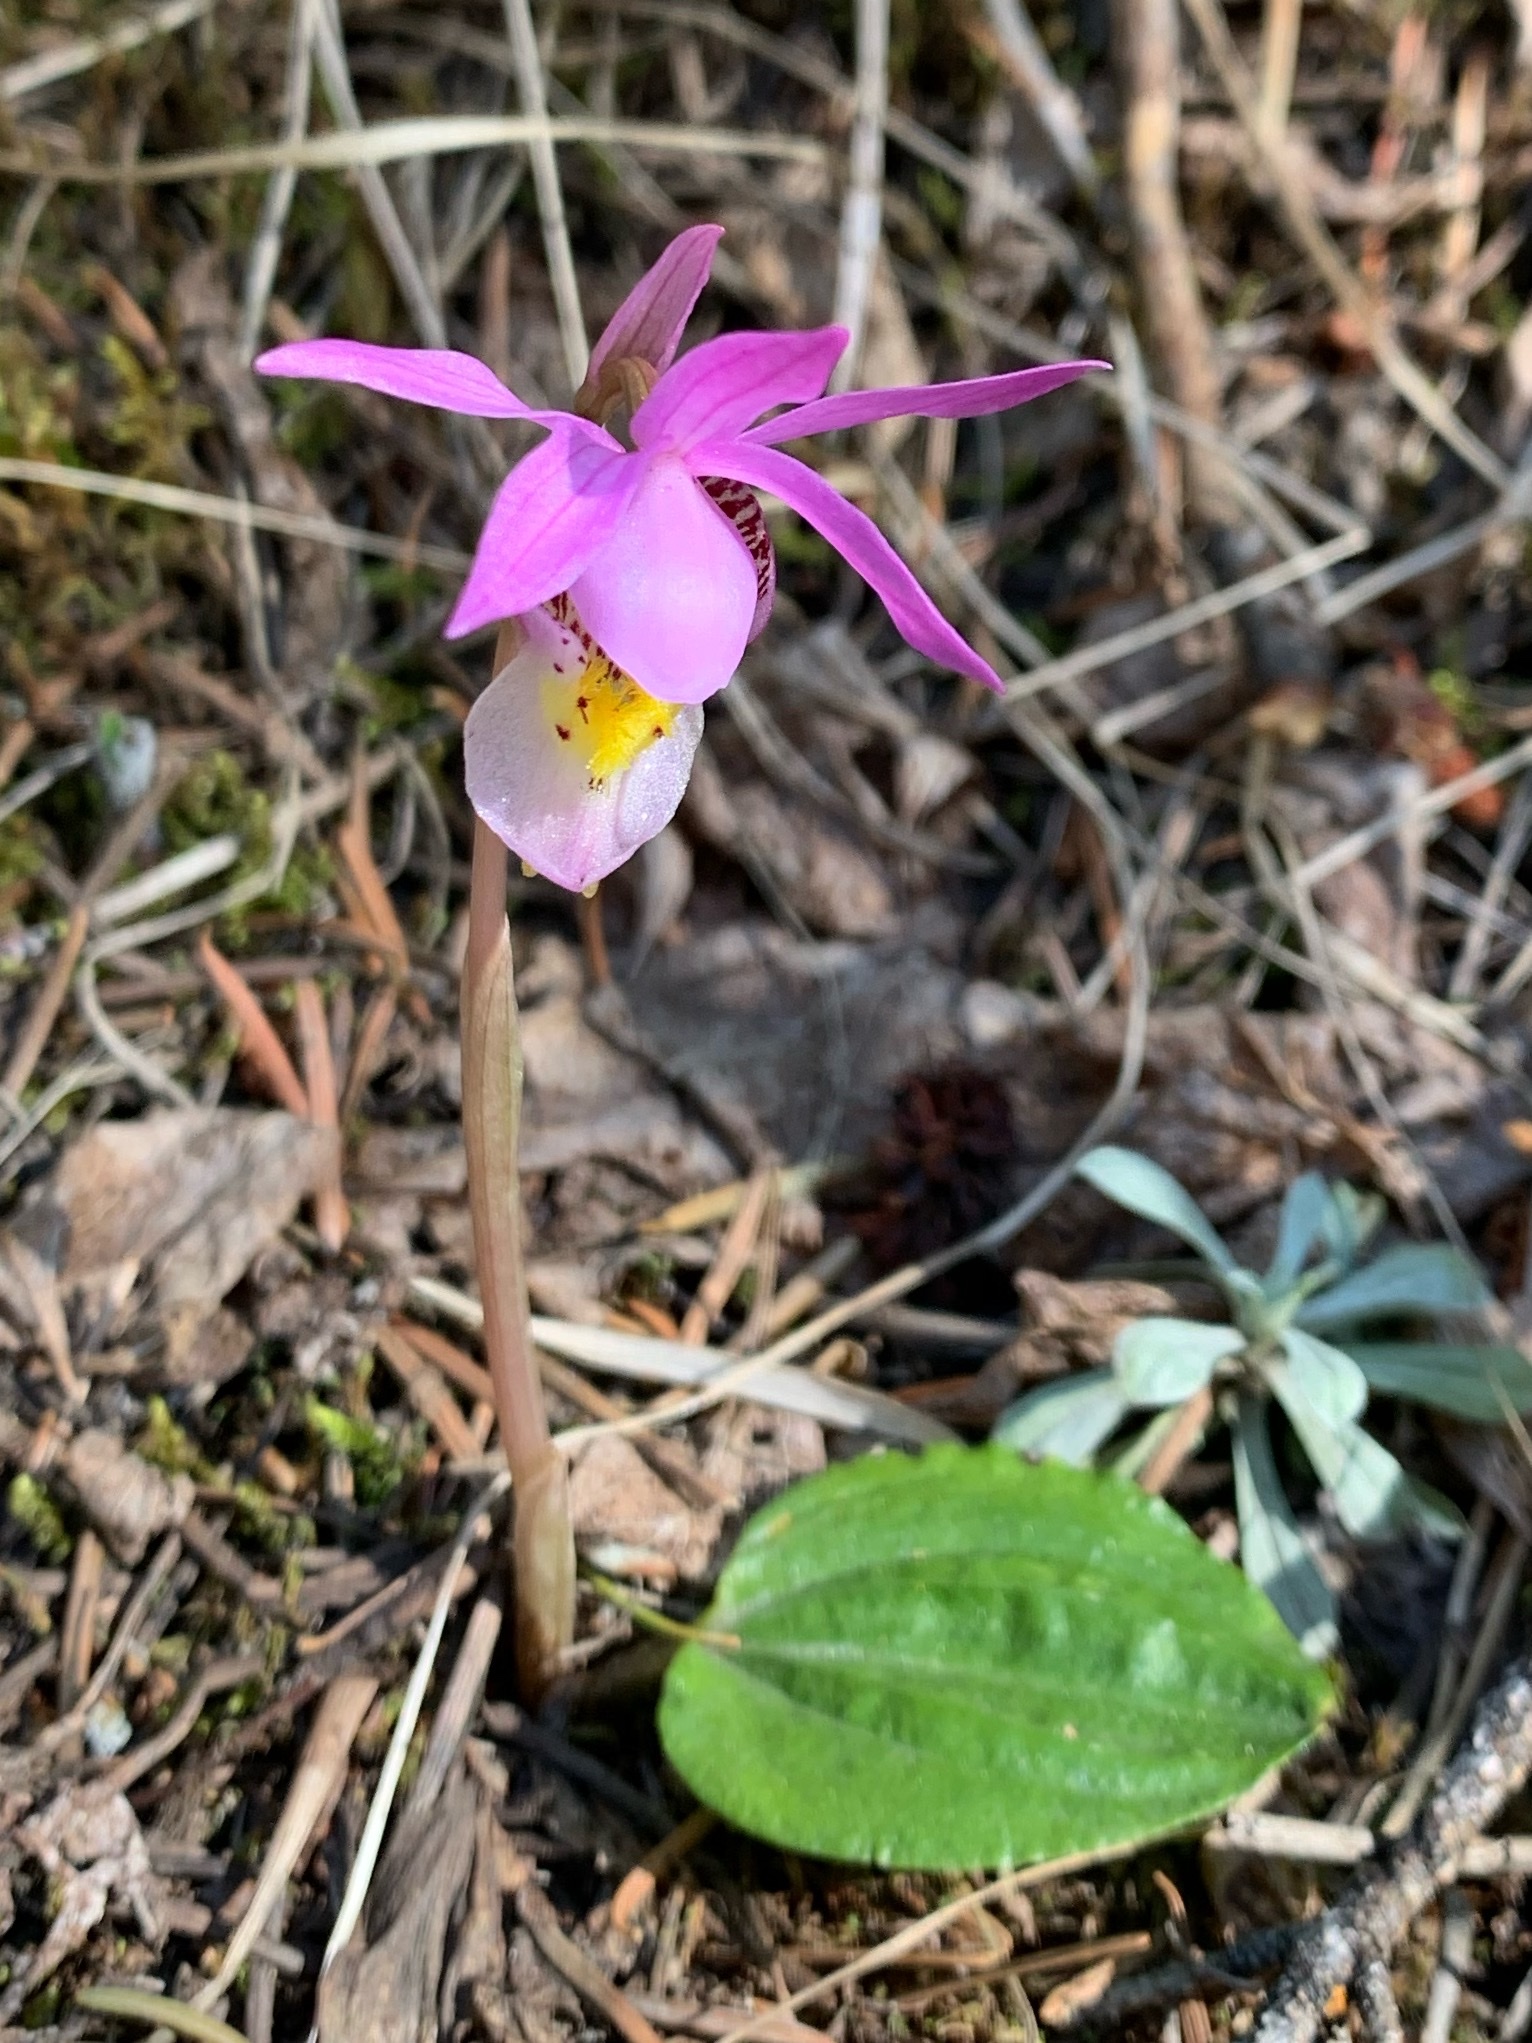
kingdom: Plantae
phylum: Tracheophyta
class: Liliopsida
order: Asparagales
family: Orchidaceae
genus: Calypso
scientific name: Calypso bulbosa
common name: Calypso
